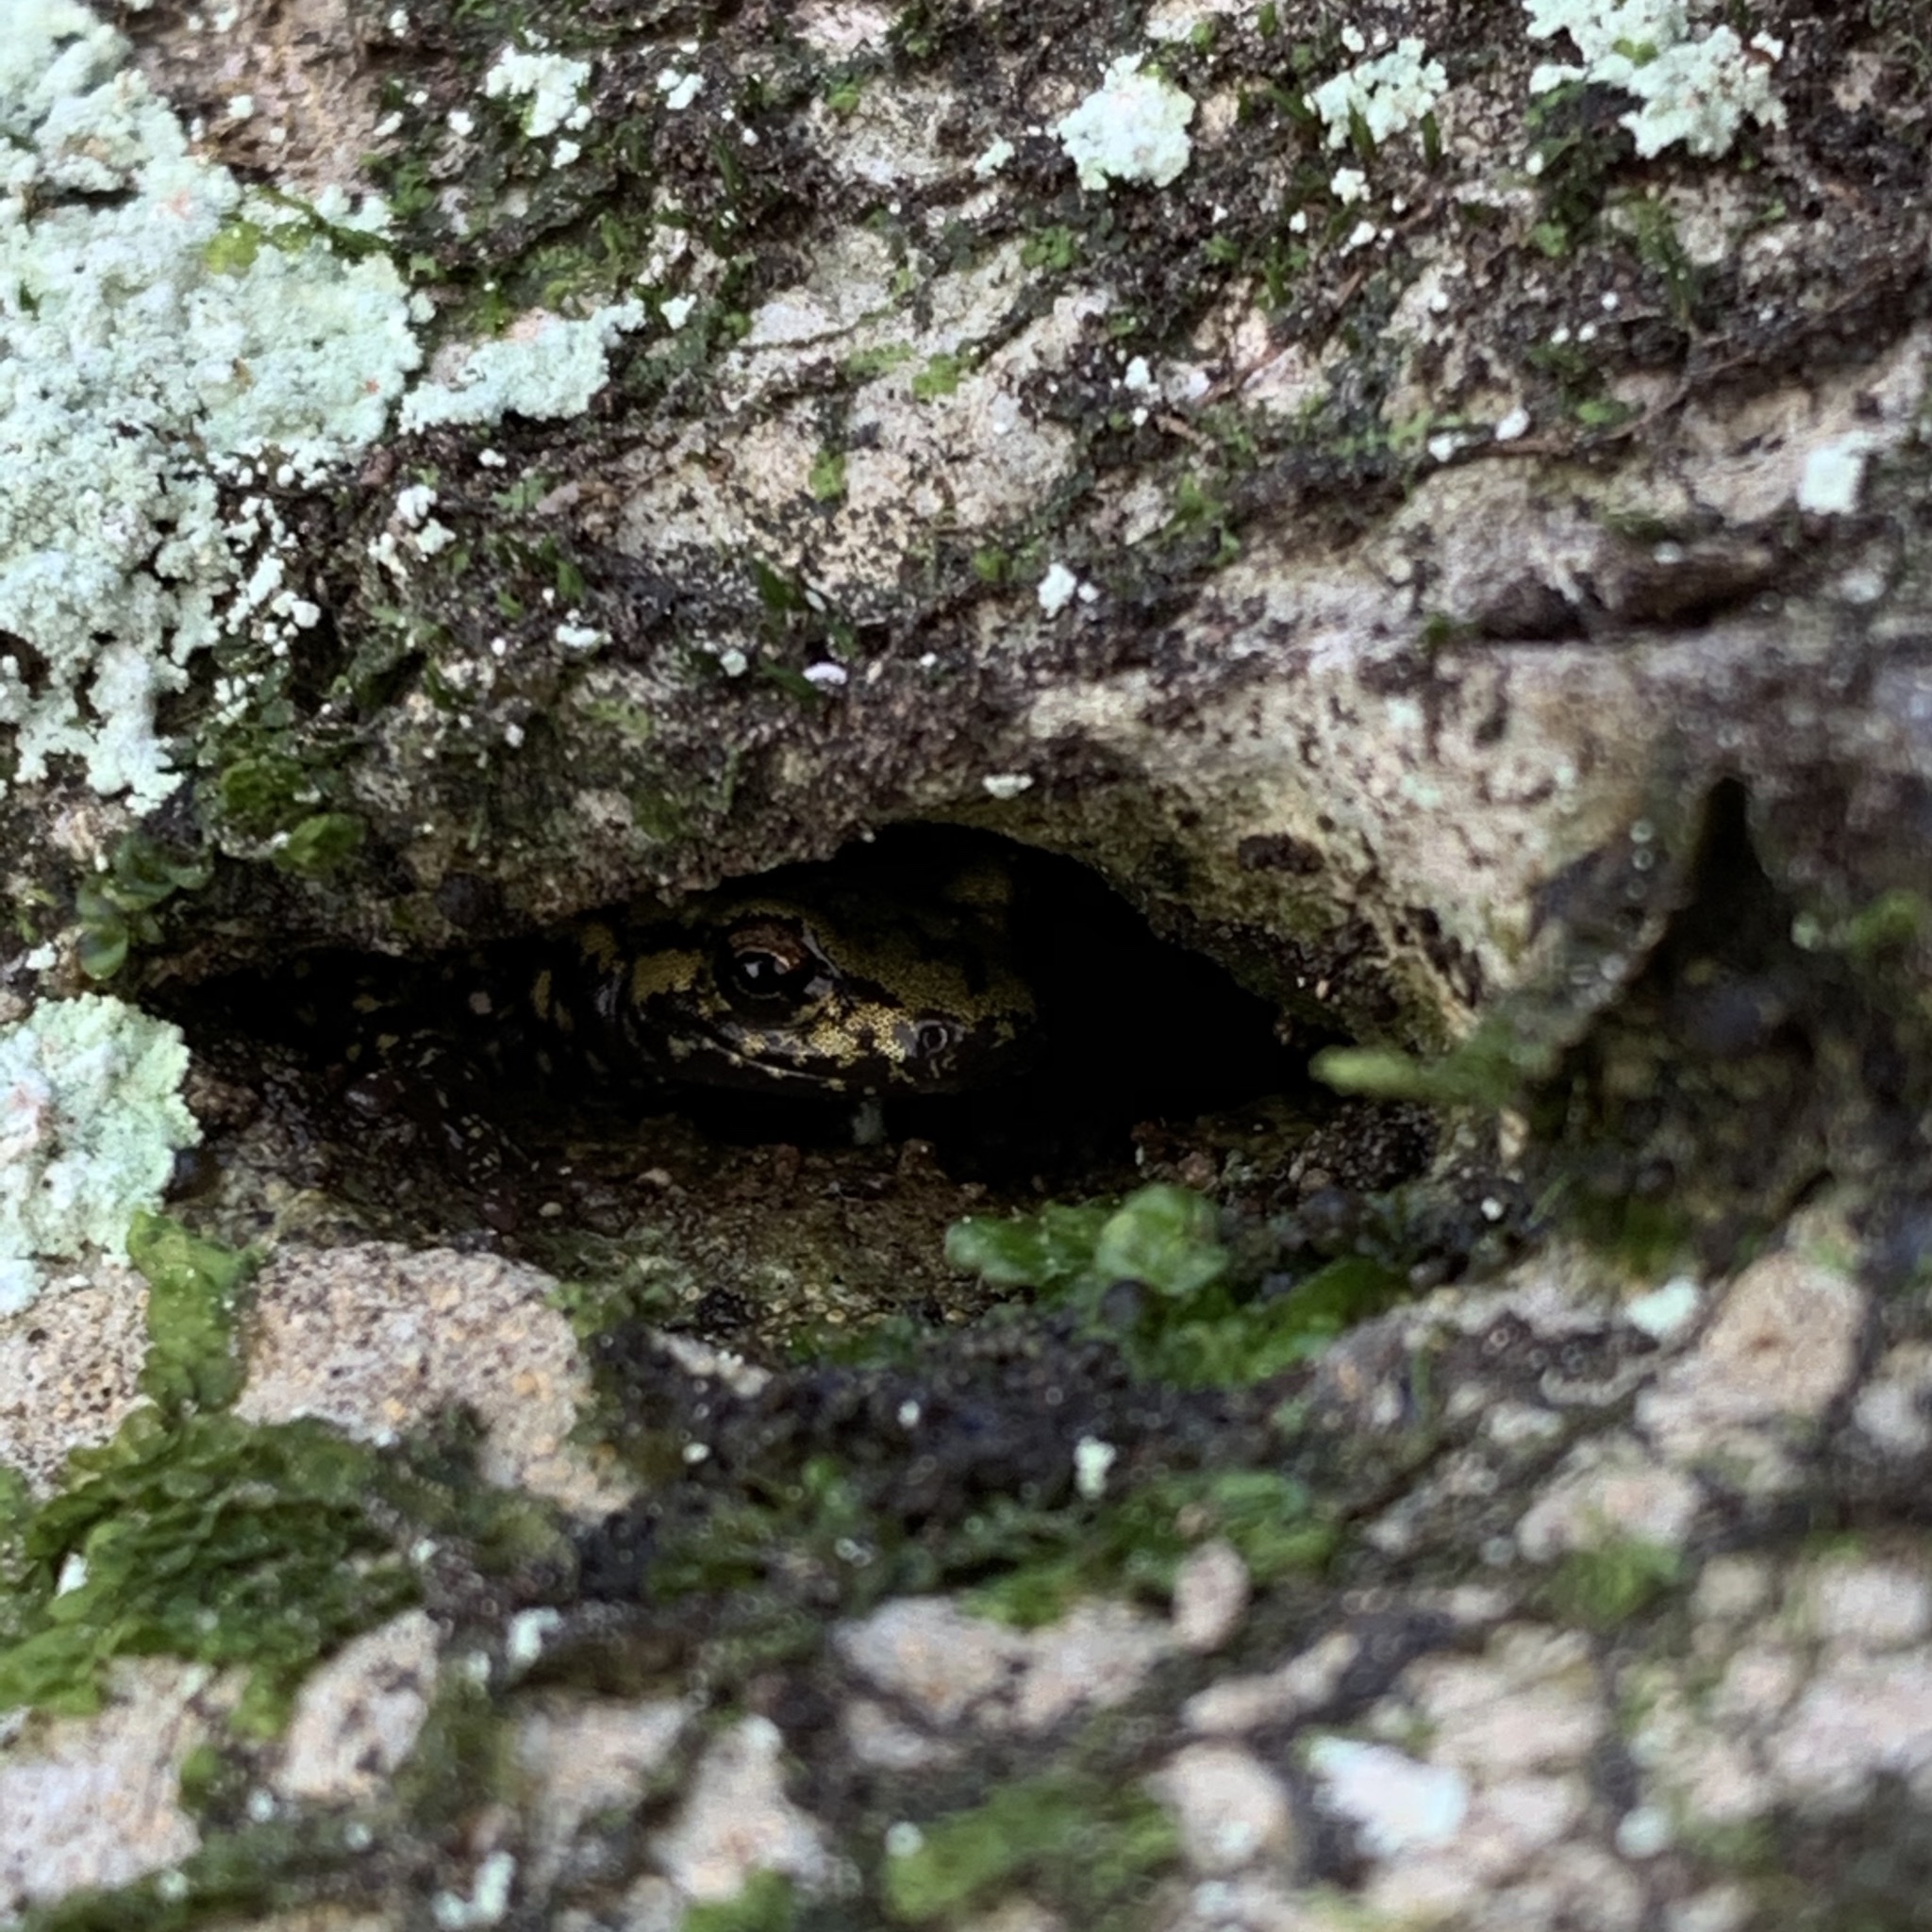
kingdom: Animalia
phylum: Chordata
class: Amphibia
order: Caudata
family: Plethodontidae
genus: Aneides
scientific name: Aneides aeneus
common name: Green salamander
